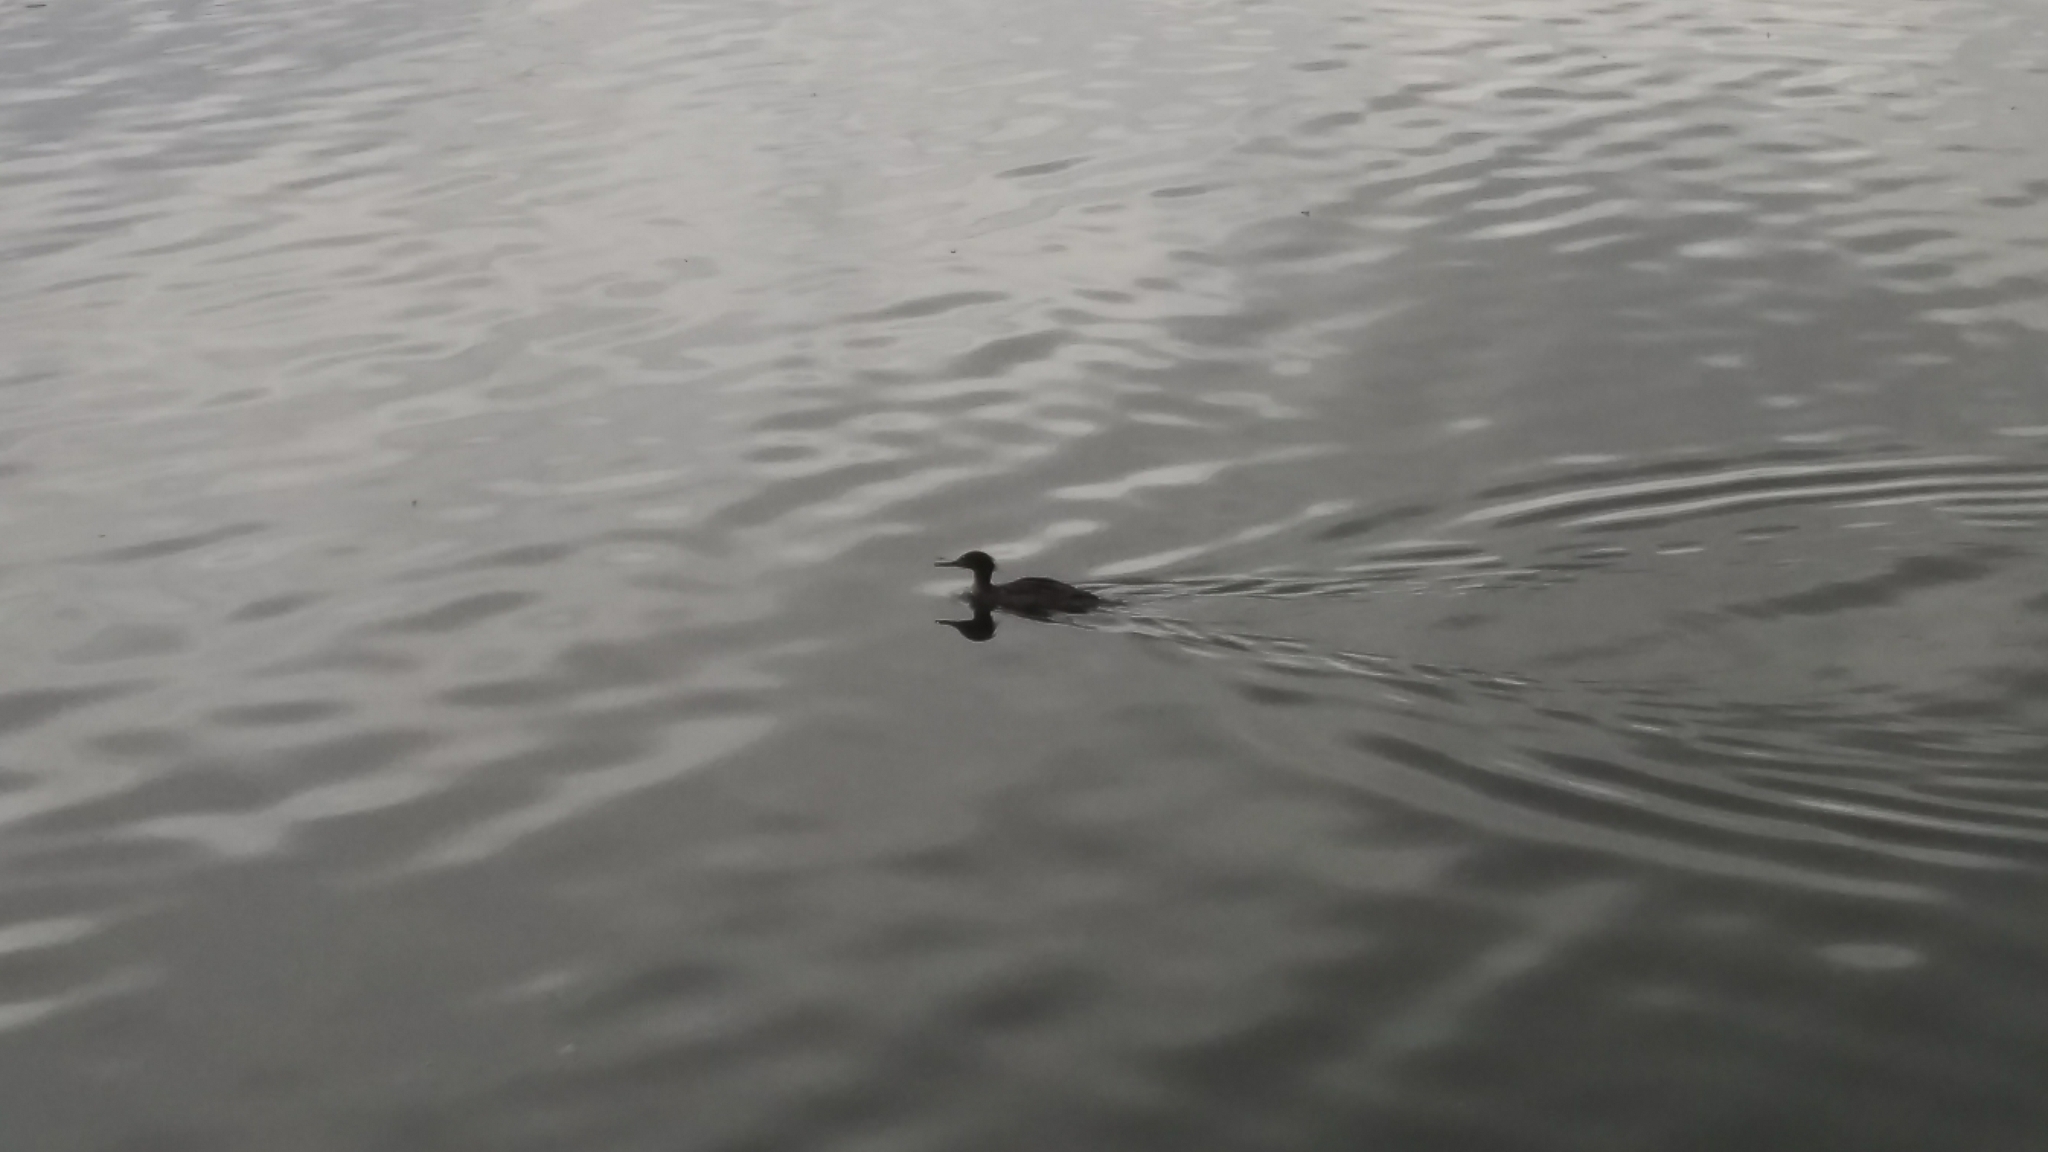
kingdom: Animalia
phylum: Chordata
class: Aves
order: Anseriformes
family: Anatidae
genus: Mergus
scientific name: Mergus serrator
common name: Red-breasted merganser
